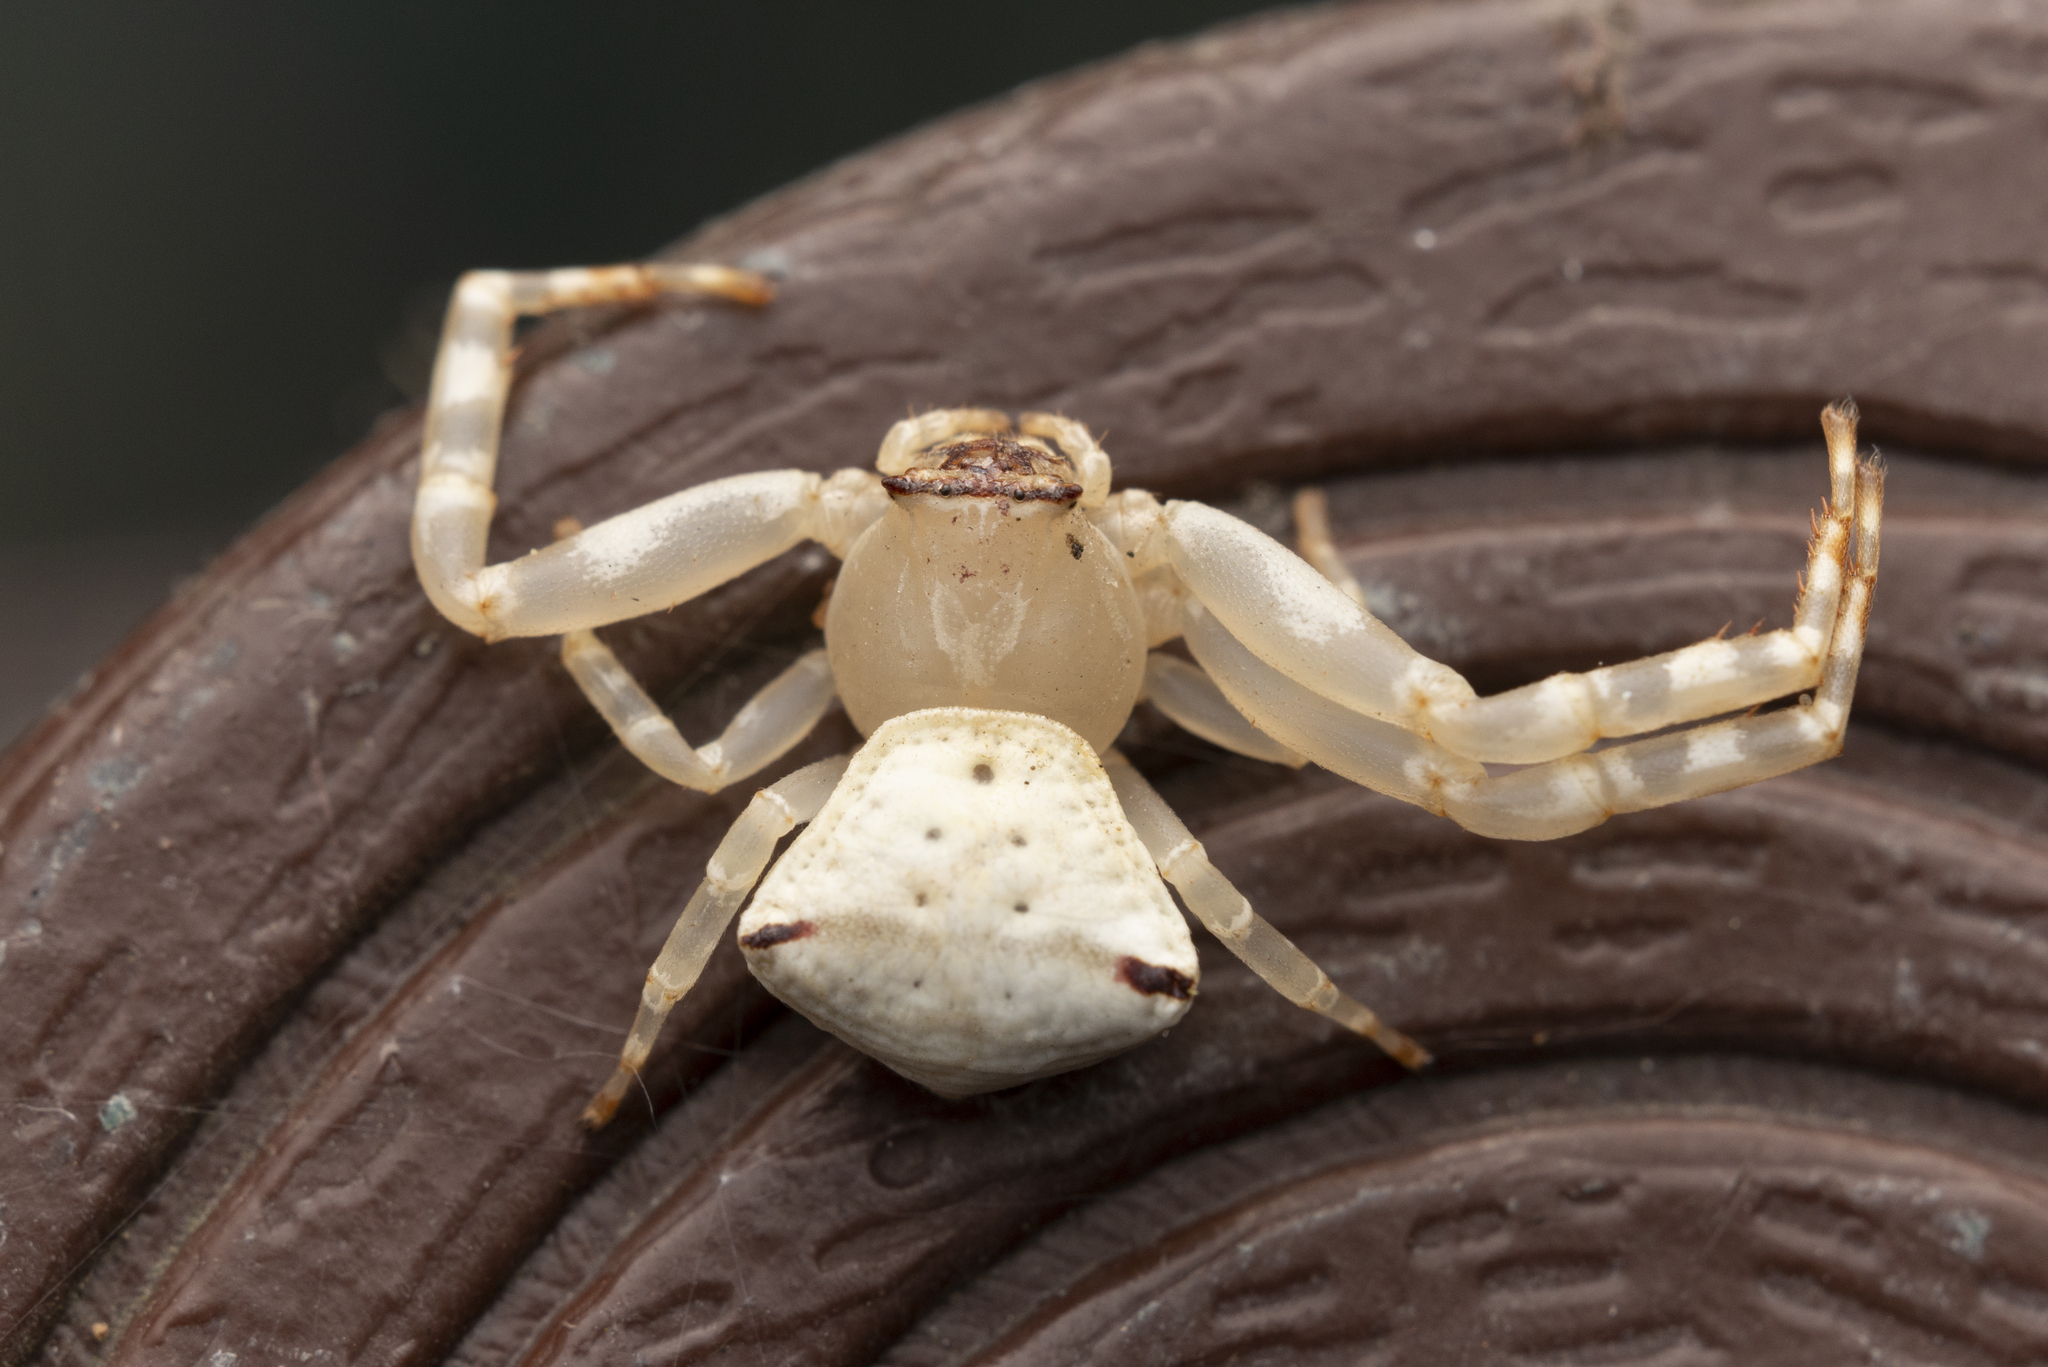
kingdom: Animalia
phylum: Arthropoda
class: Arachnida
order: Araneae
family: Thomisidae
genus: Thomisus
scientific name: Thomisus labefactus
